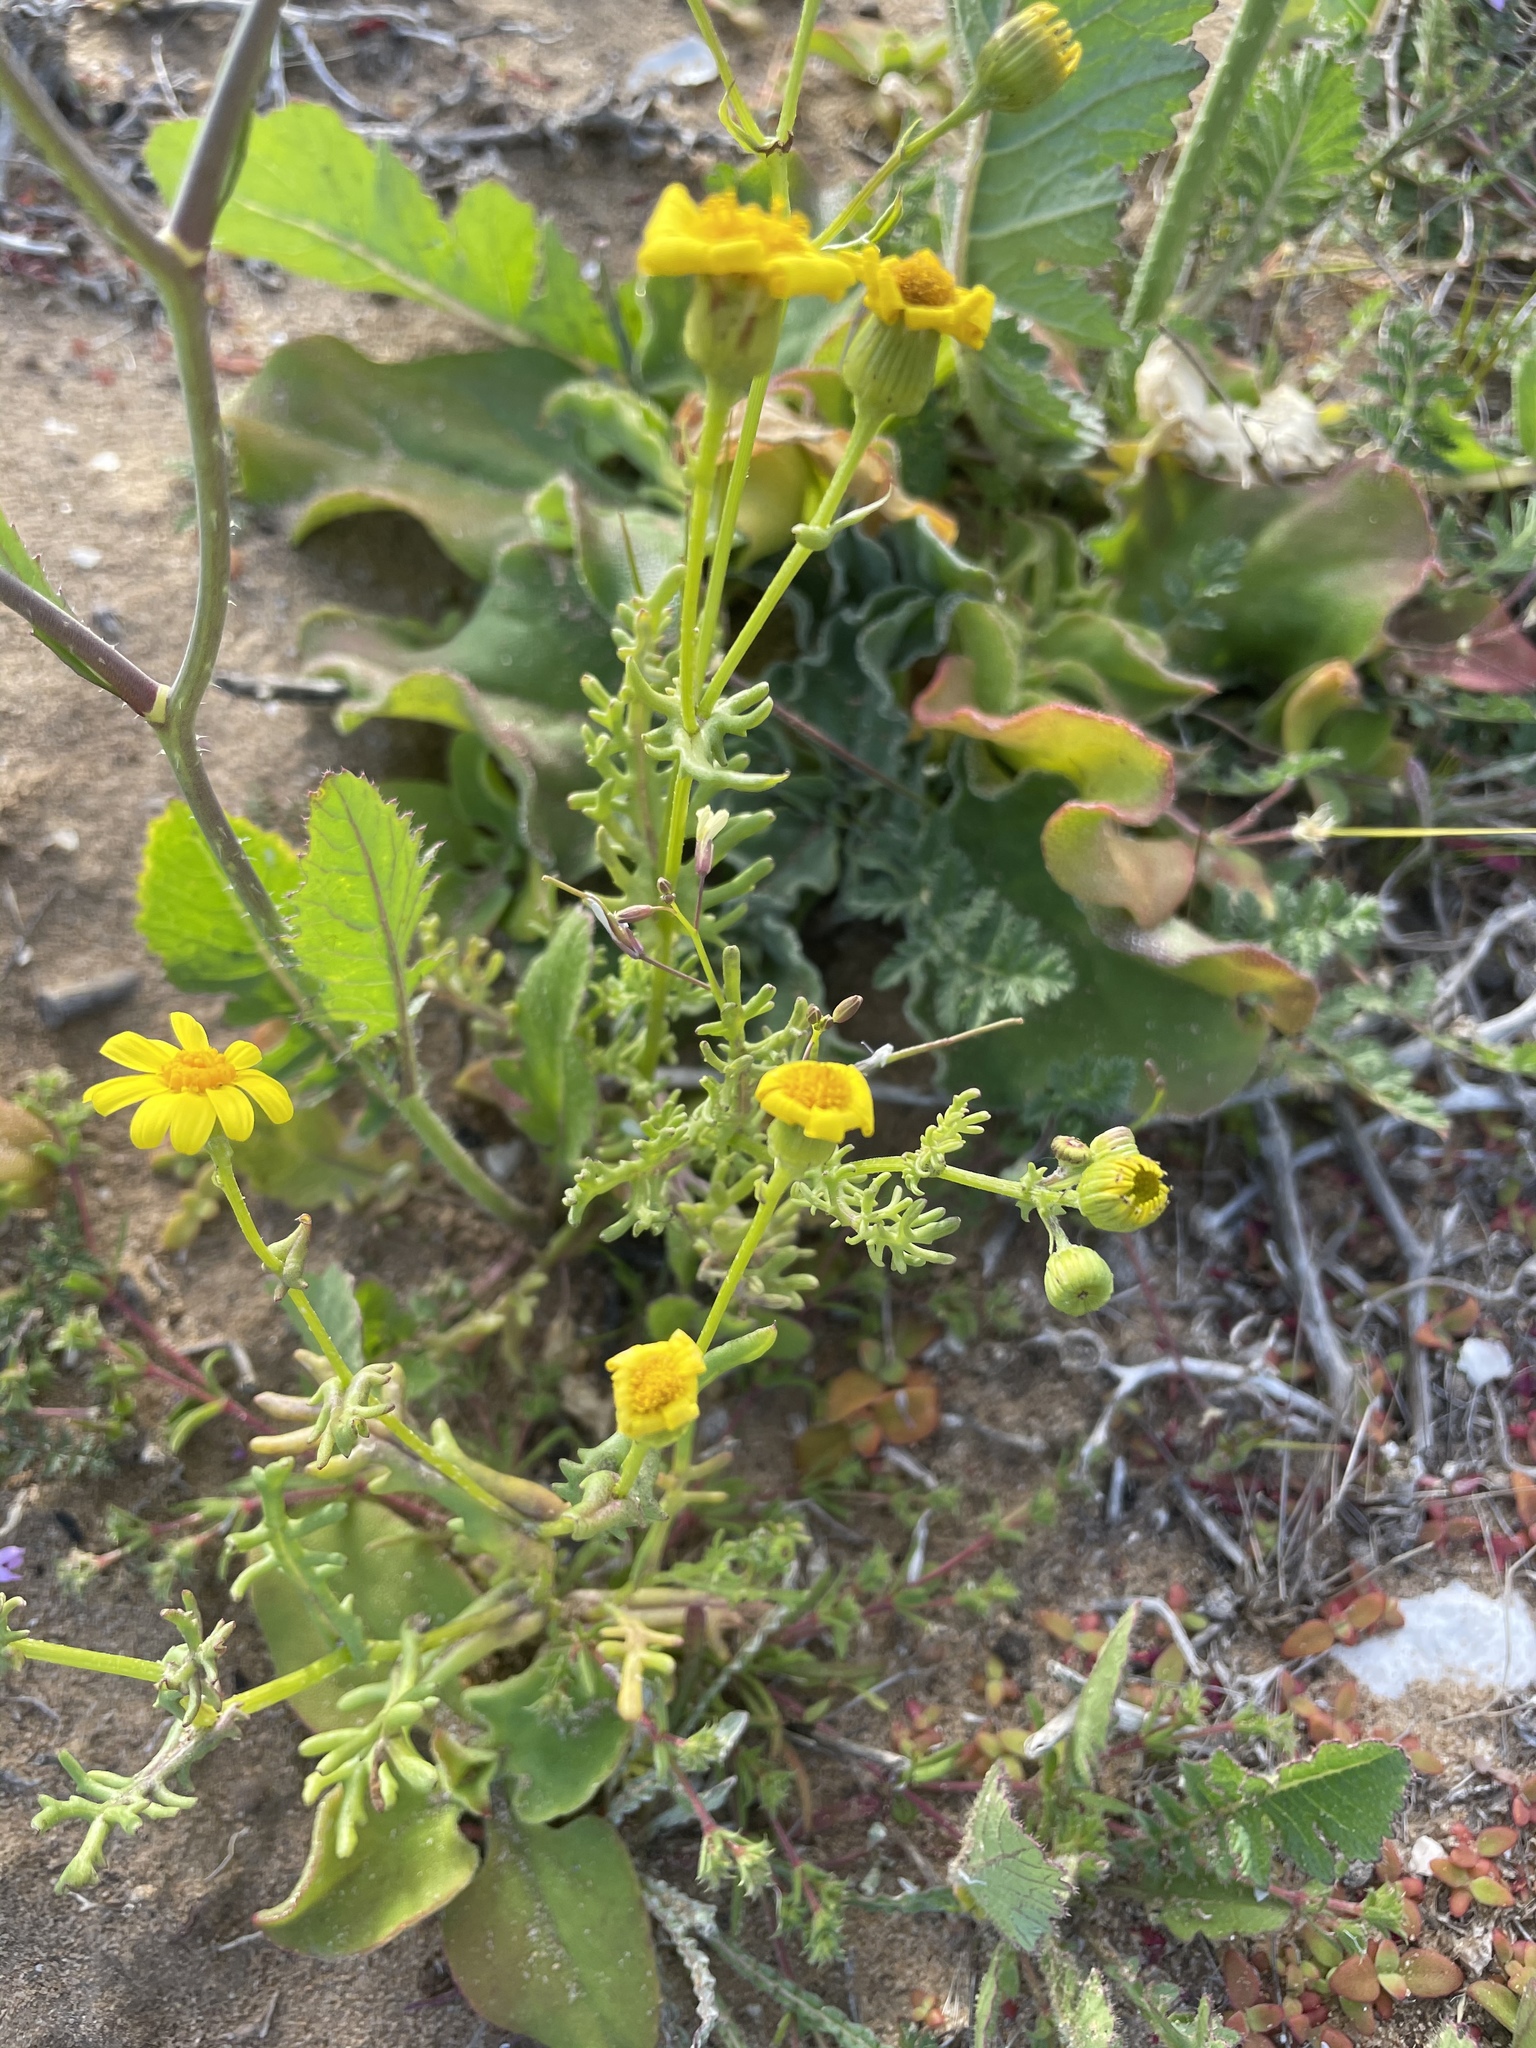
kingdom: Plantae
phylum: Tracheophyta
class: Magnoliopsida
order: Asterales
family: Asteraceae
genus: Senecio
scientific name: Senecio californicus
